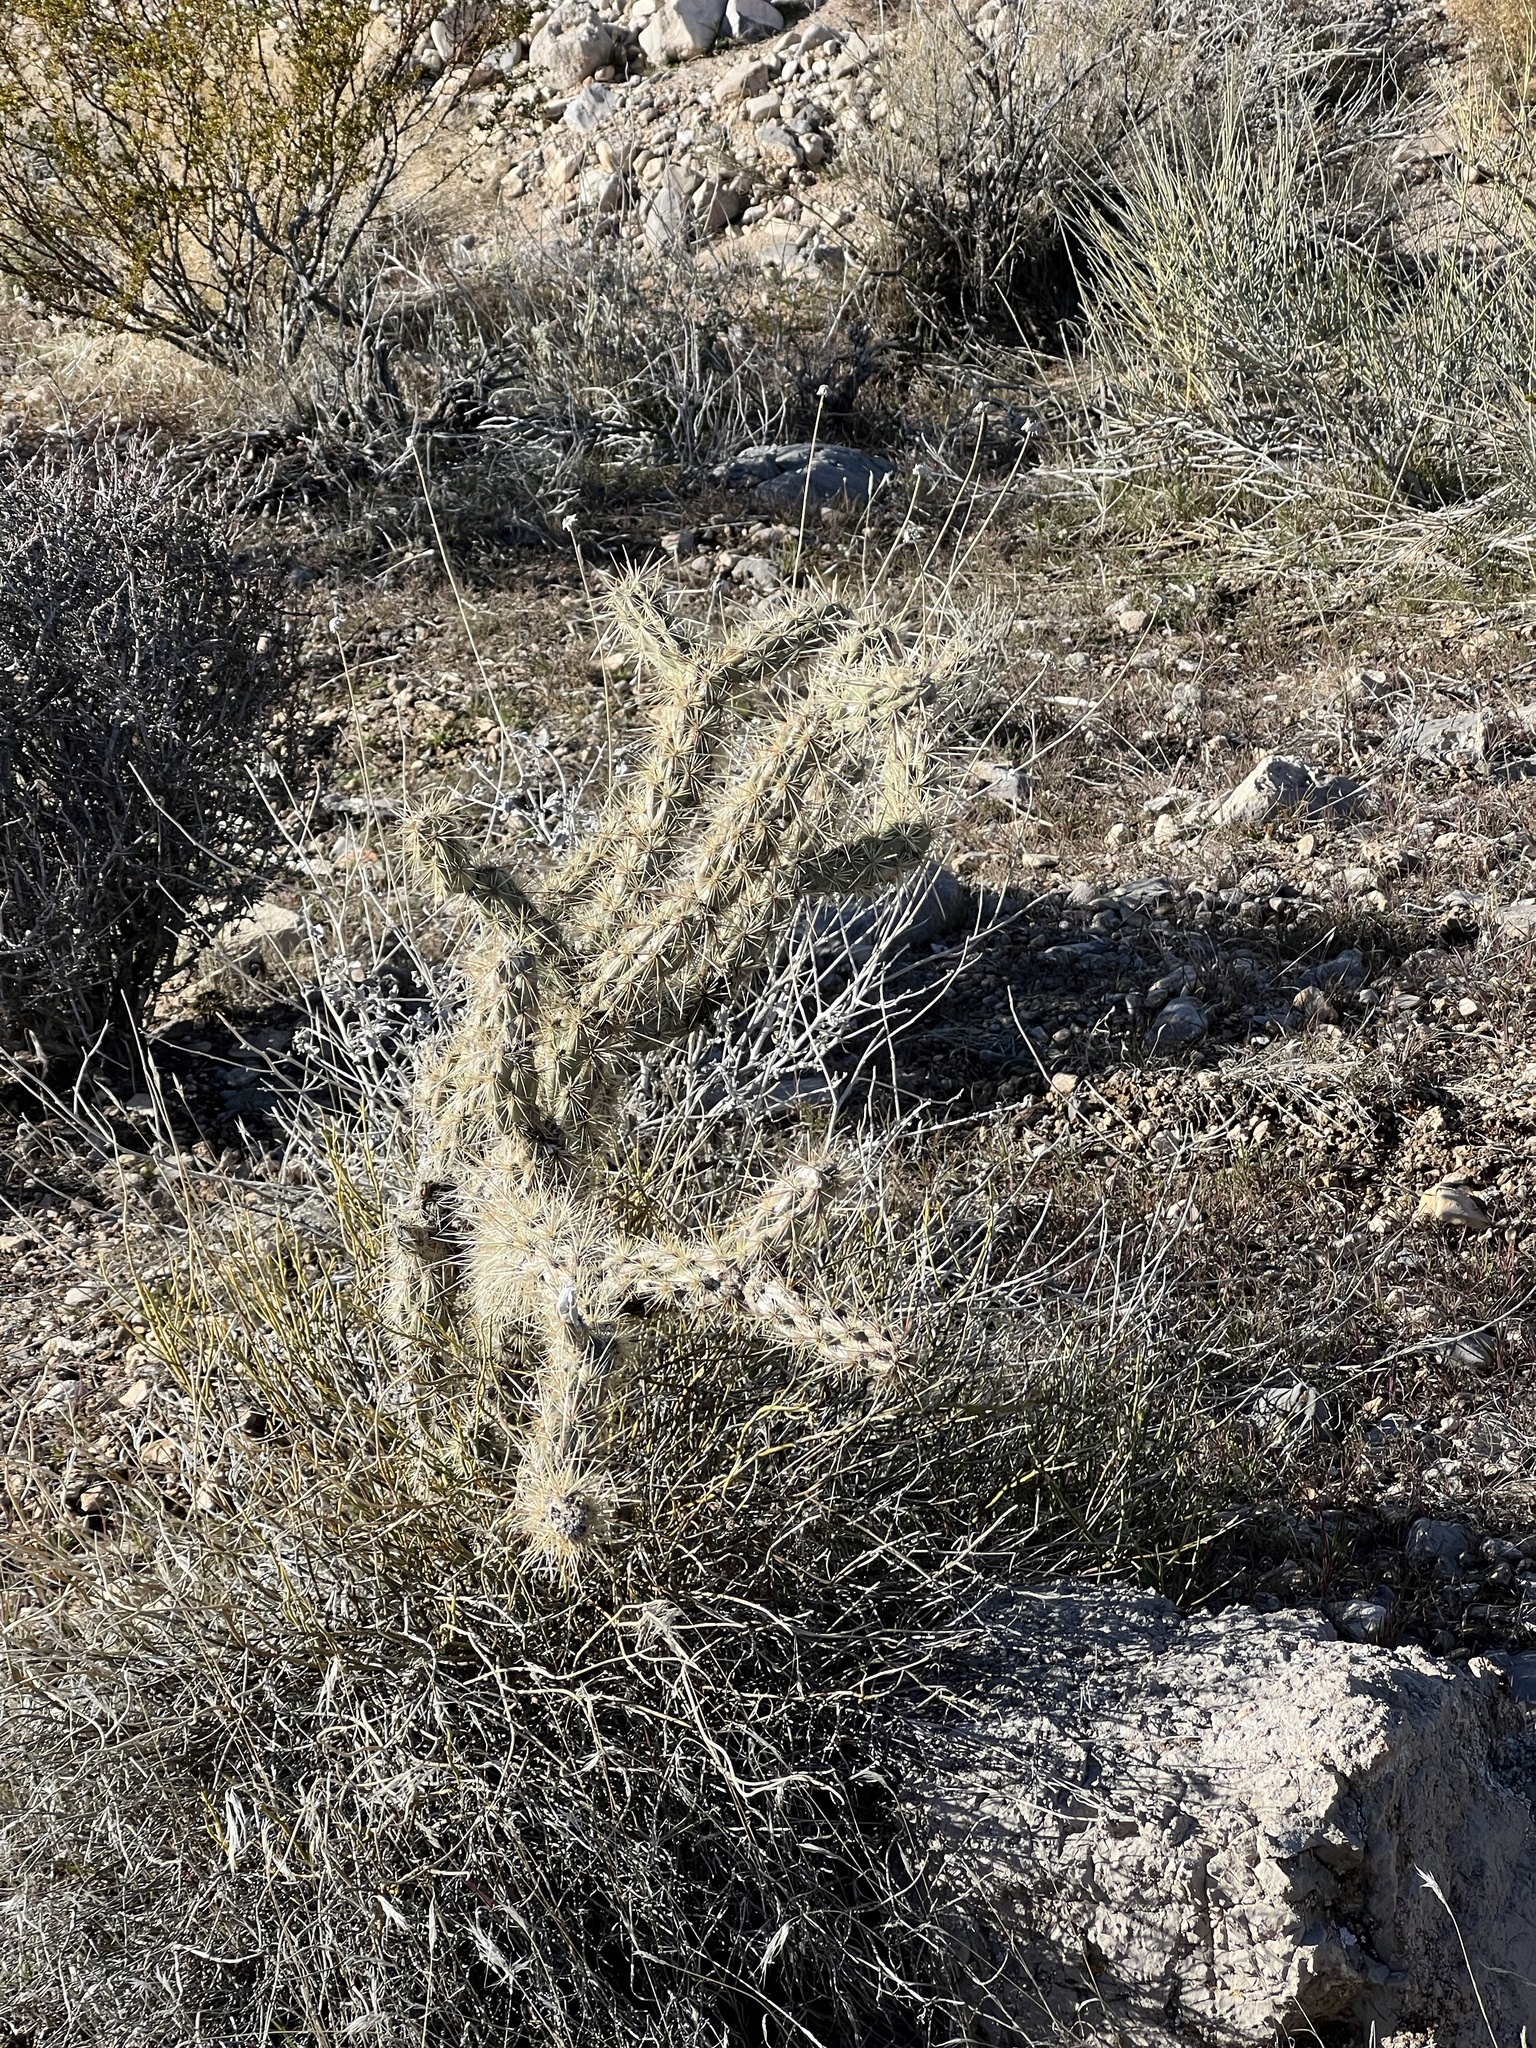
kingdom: Plantae
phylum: Tracheophyta
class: Magnoliopsida
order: Caryophyllales
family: Cactaceae
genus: Cylindropuntia
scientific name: Cylindropuntia acanthocarpa
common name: Buckhorn cholla
